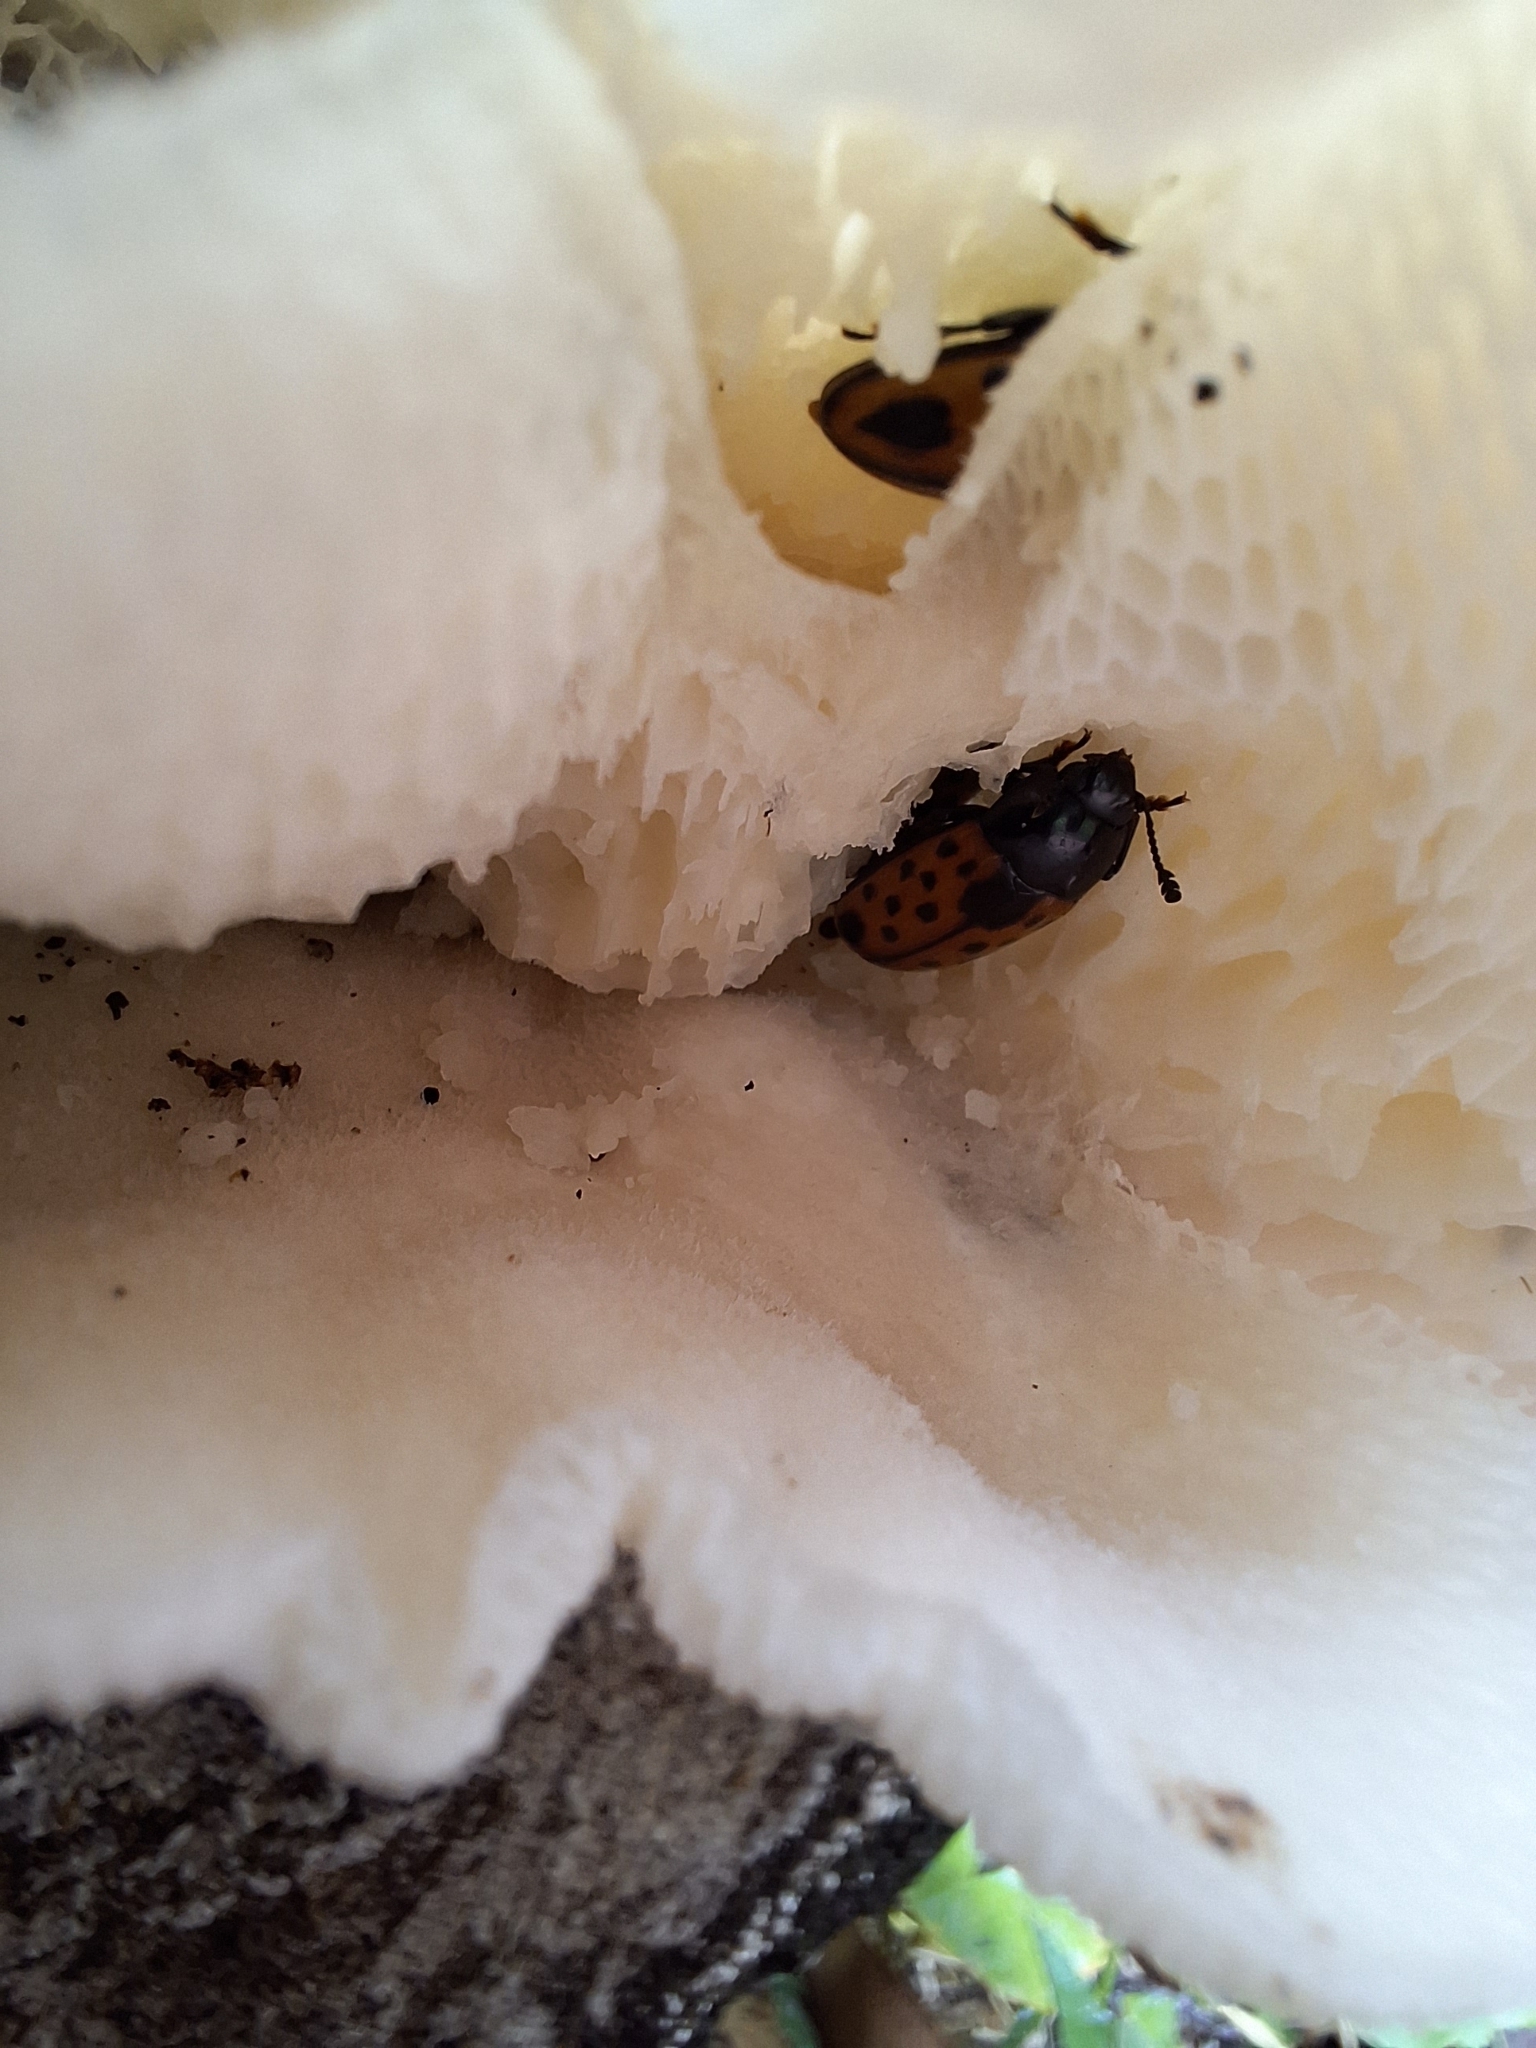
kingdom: Animalia
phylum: Arthropoda
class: Insecta
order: Coleoptera
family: Erotylidae
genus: Pselaphacus
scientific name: Pselaphacus signatus
